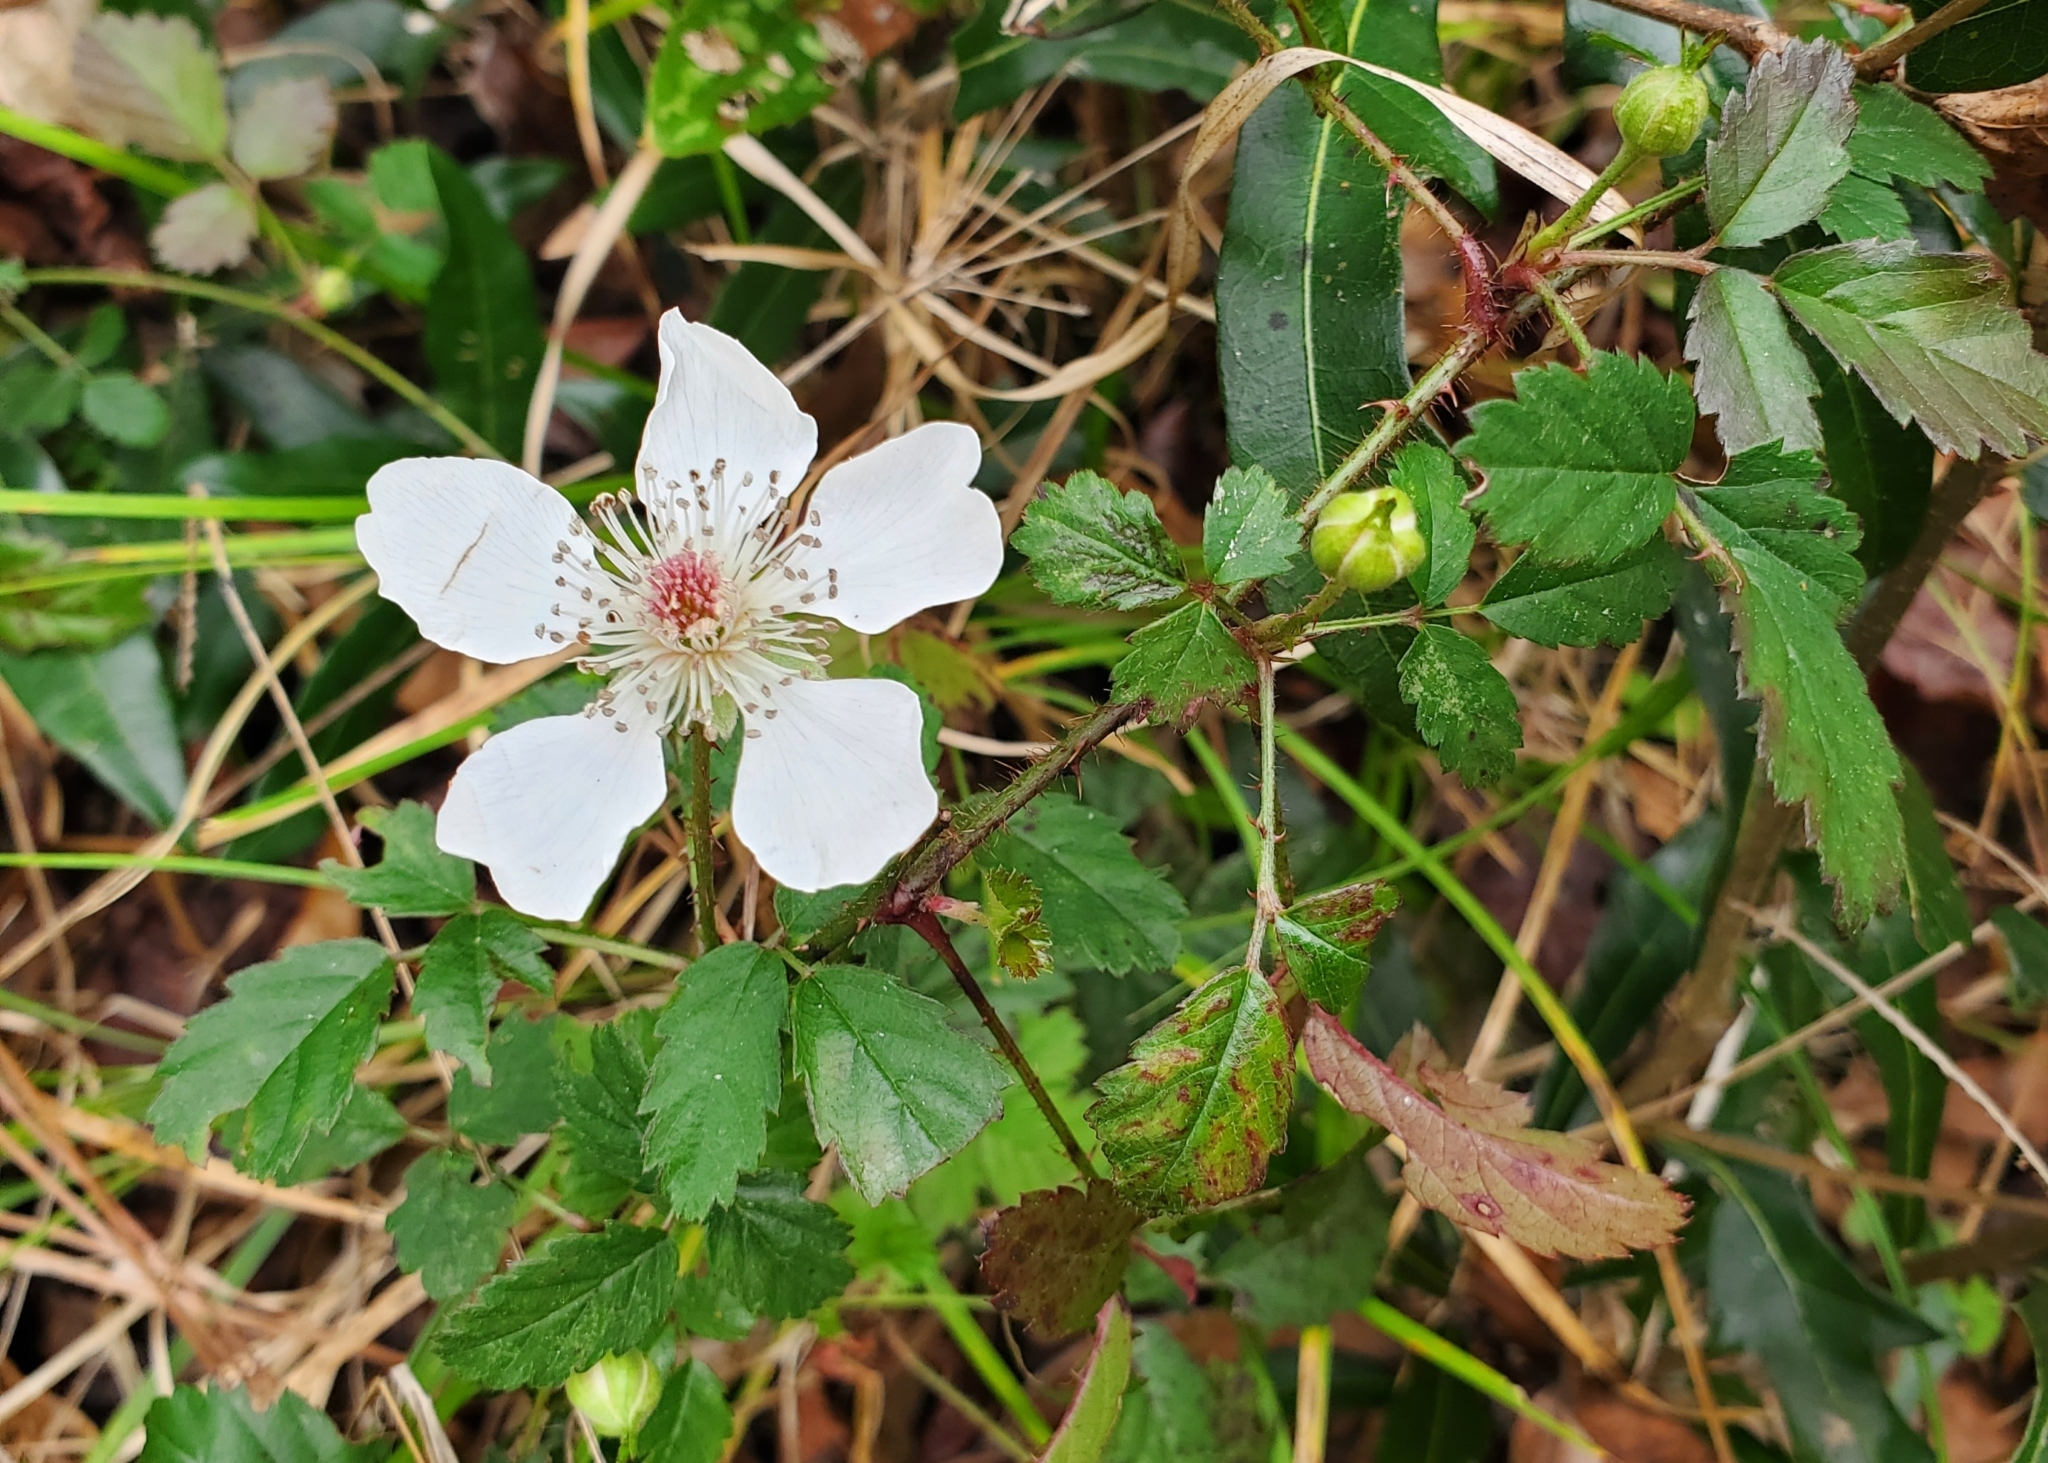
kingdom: Plantae
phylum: Tracheophyta
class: Magnoliopsida
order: Rosales
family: Rosaceae
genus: Rubus
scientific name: Rubus trivialis
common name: Southern dewberry
